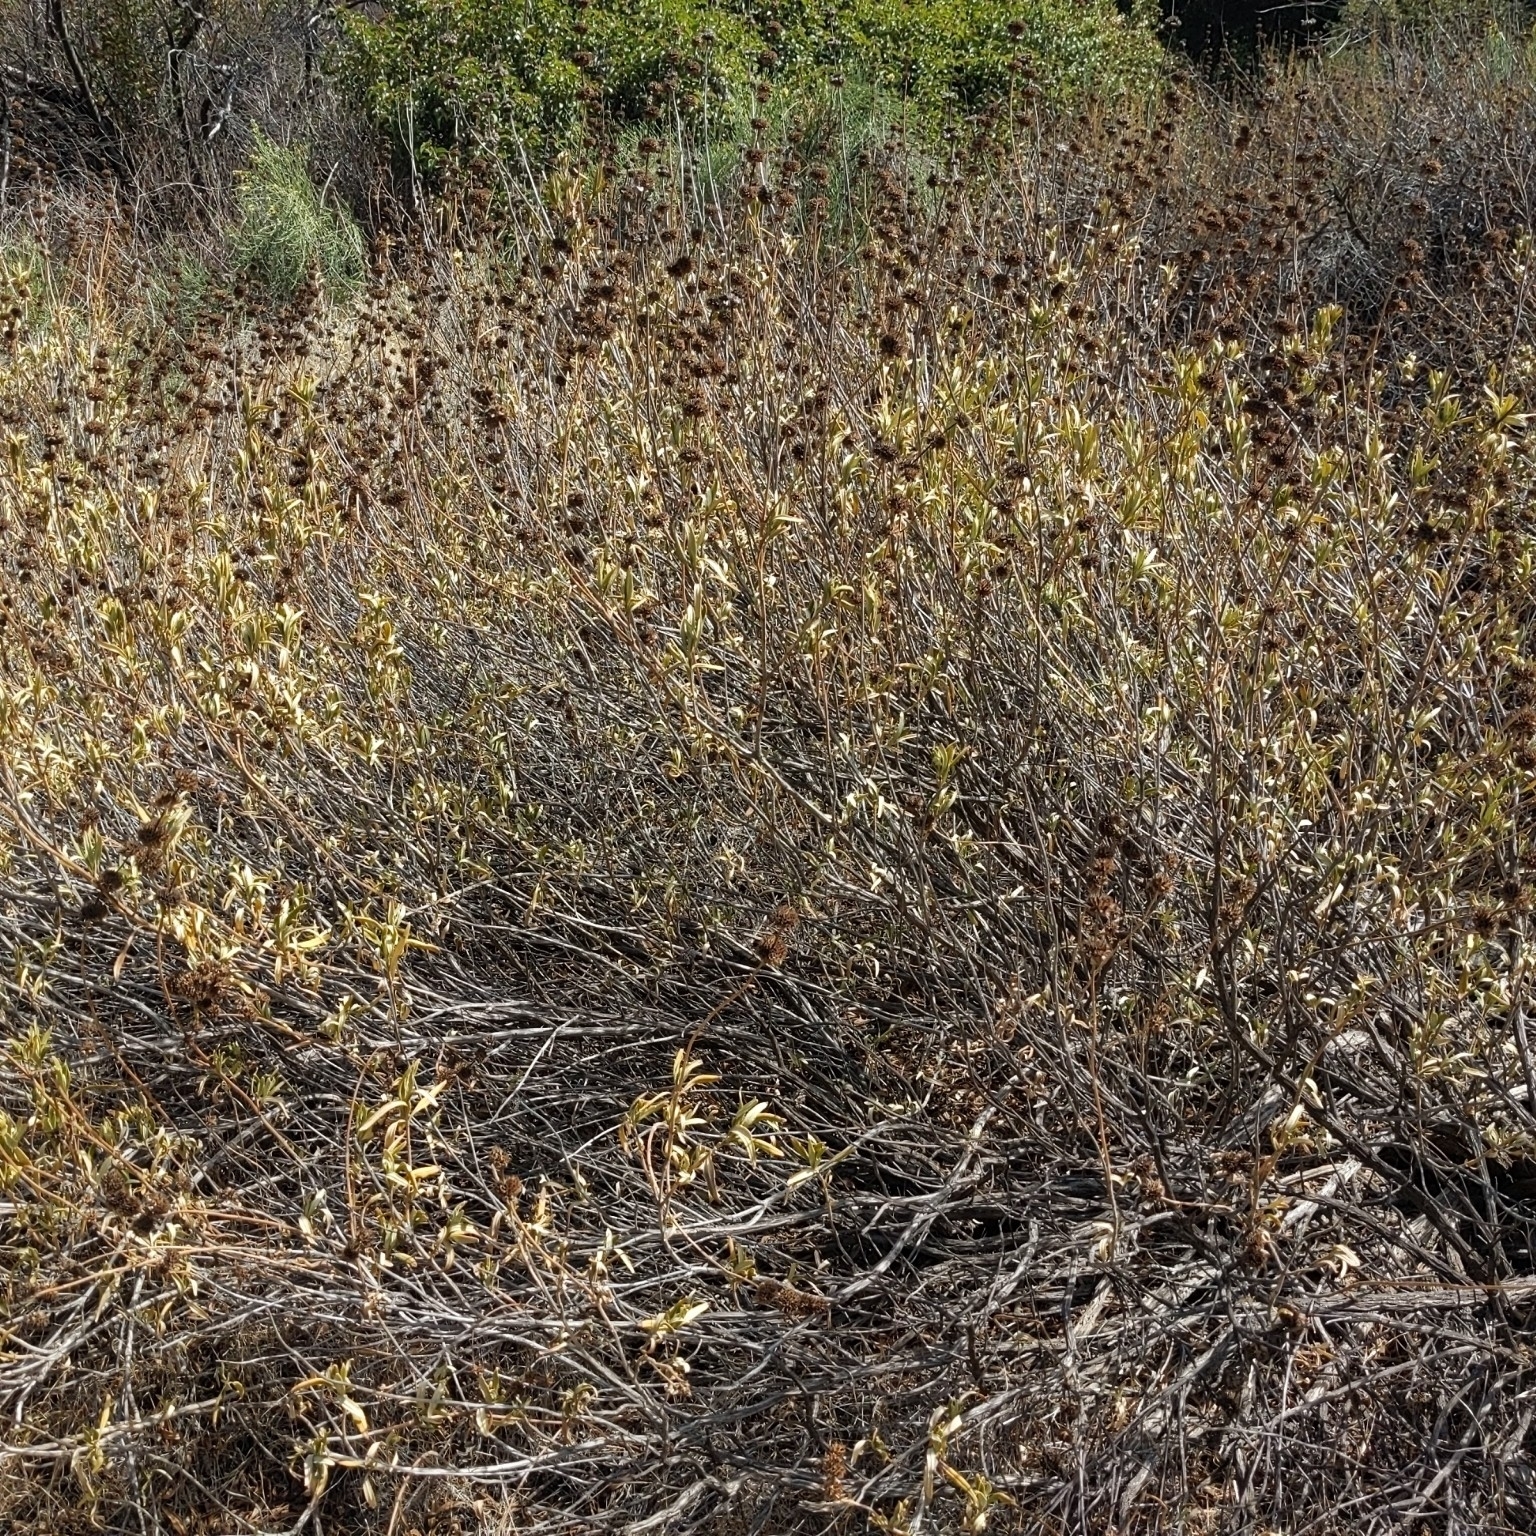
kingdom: Plantae
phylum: Tracheophyta
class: Magnoliopsida
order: Lamiales
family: Lamiaceae
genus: Salvia
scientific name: Salvia mellifera
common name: Black sage
